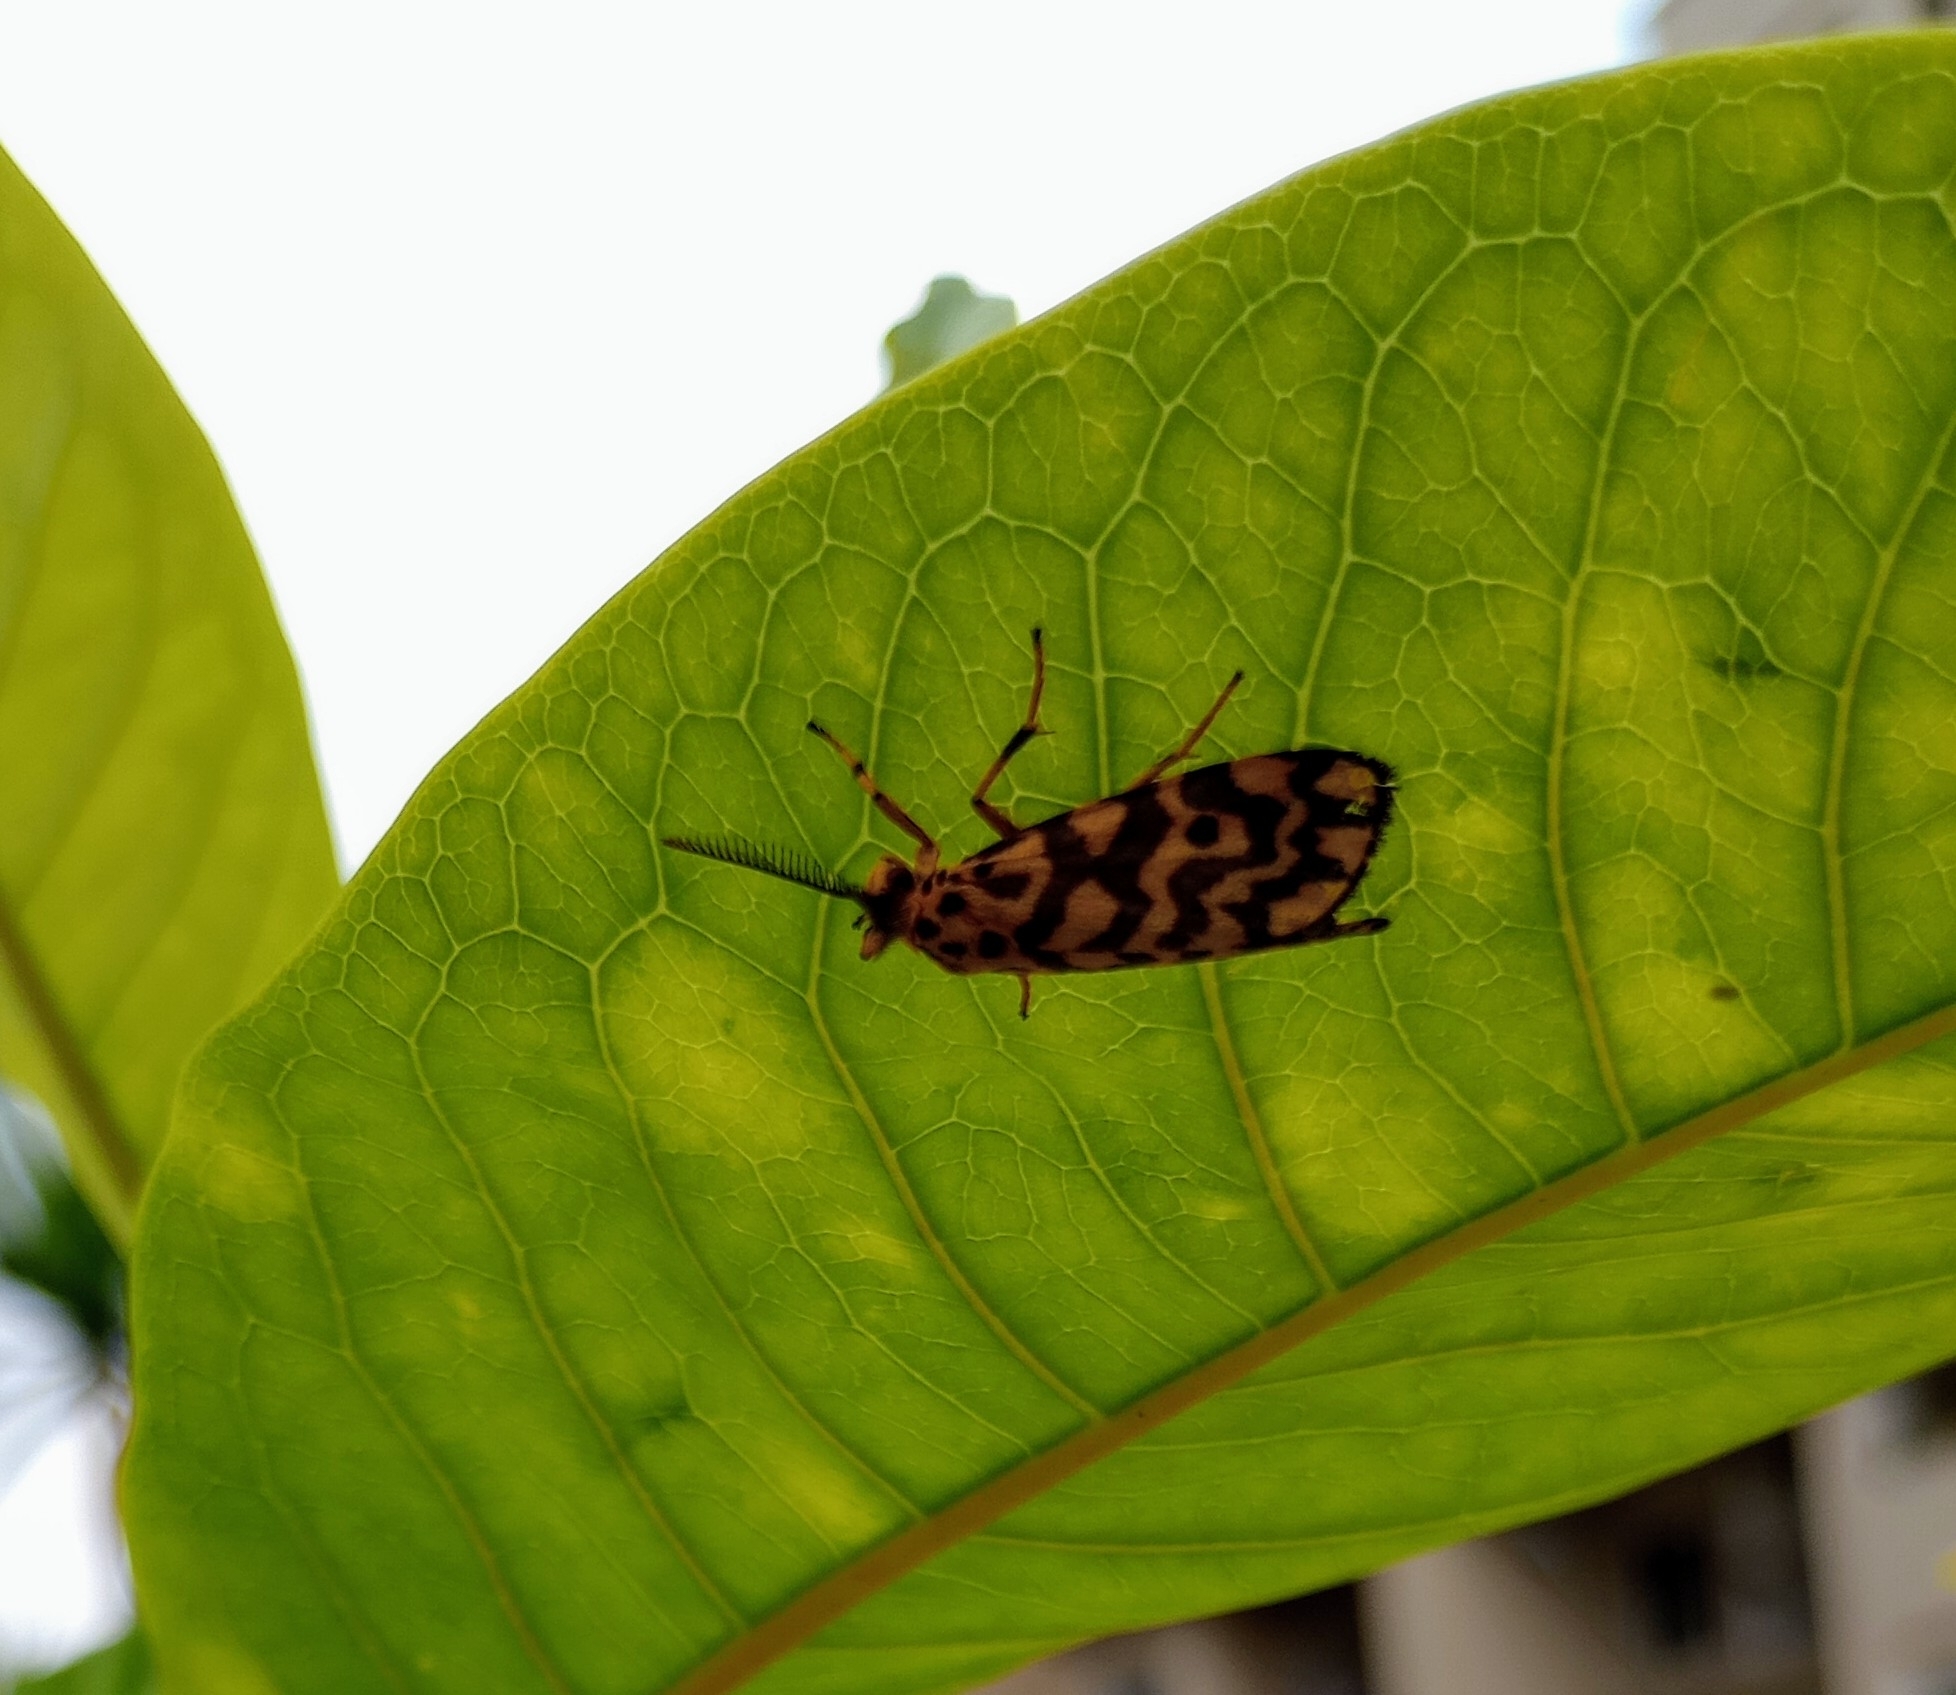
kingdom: Animalia
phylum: Arthropoda
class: Insecta
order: Lepidoptera
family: Erebidae
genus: Nepita
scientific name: Nepita conferta
